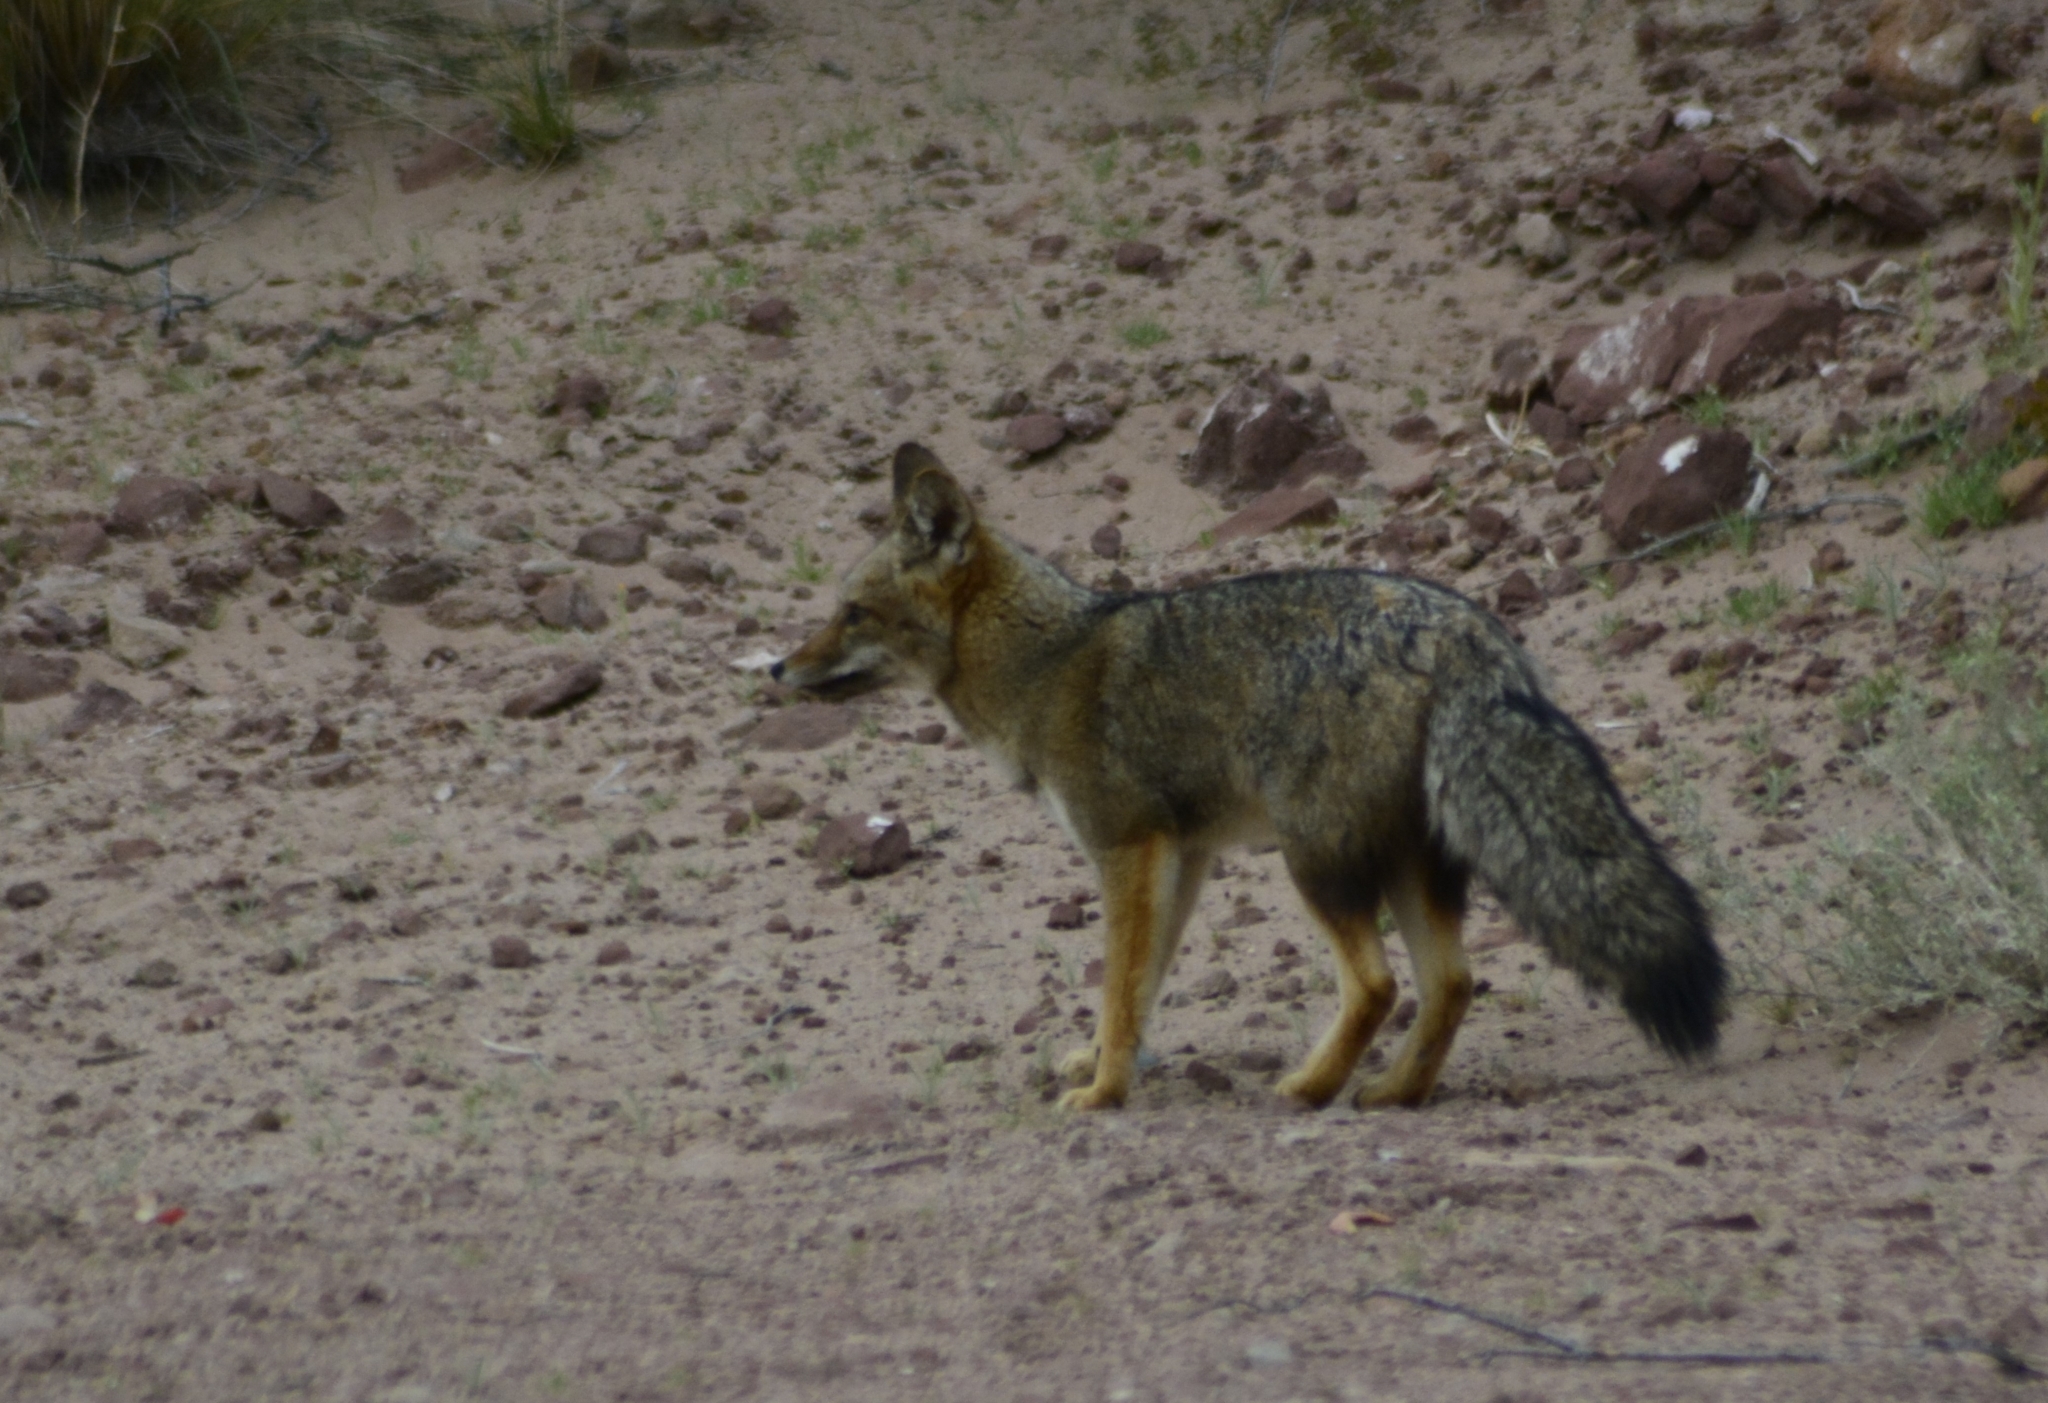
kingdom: Animalia
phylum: Chordata
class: Mammalia
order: Carnivora
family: Canidae
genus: Lycalopex
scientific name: Lycalopex gymnocercus
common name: Pampas fox
